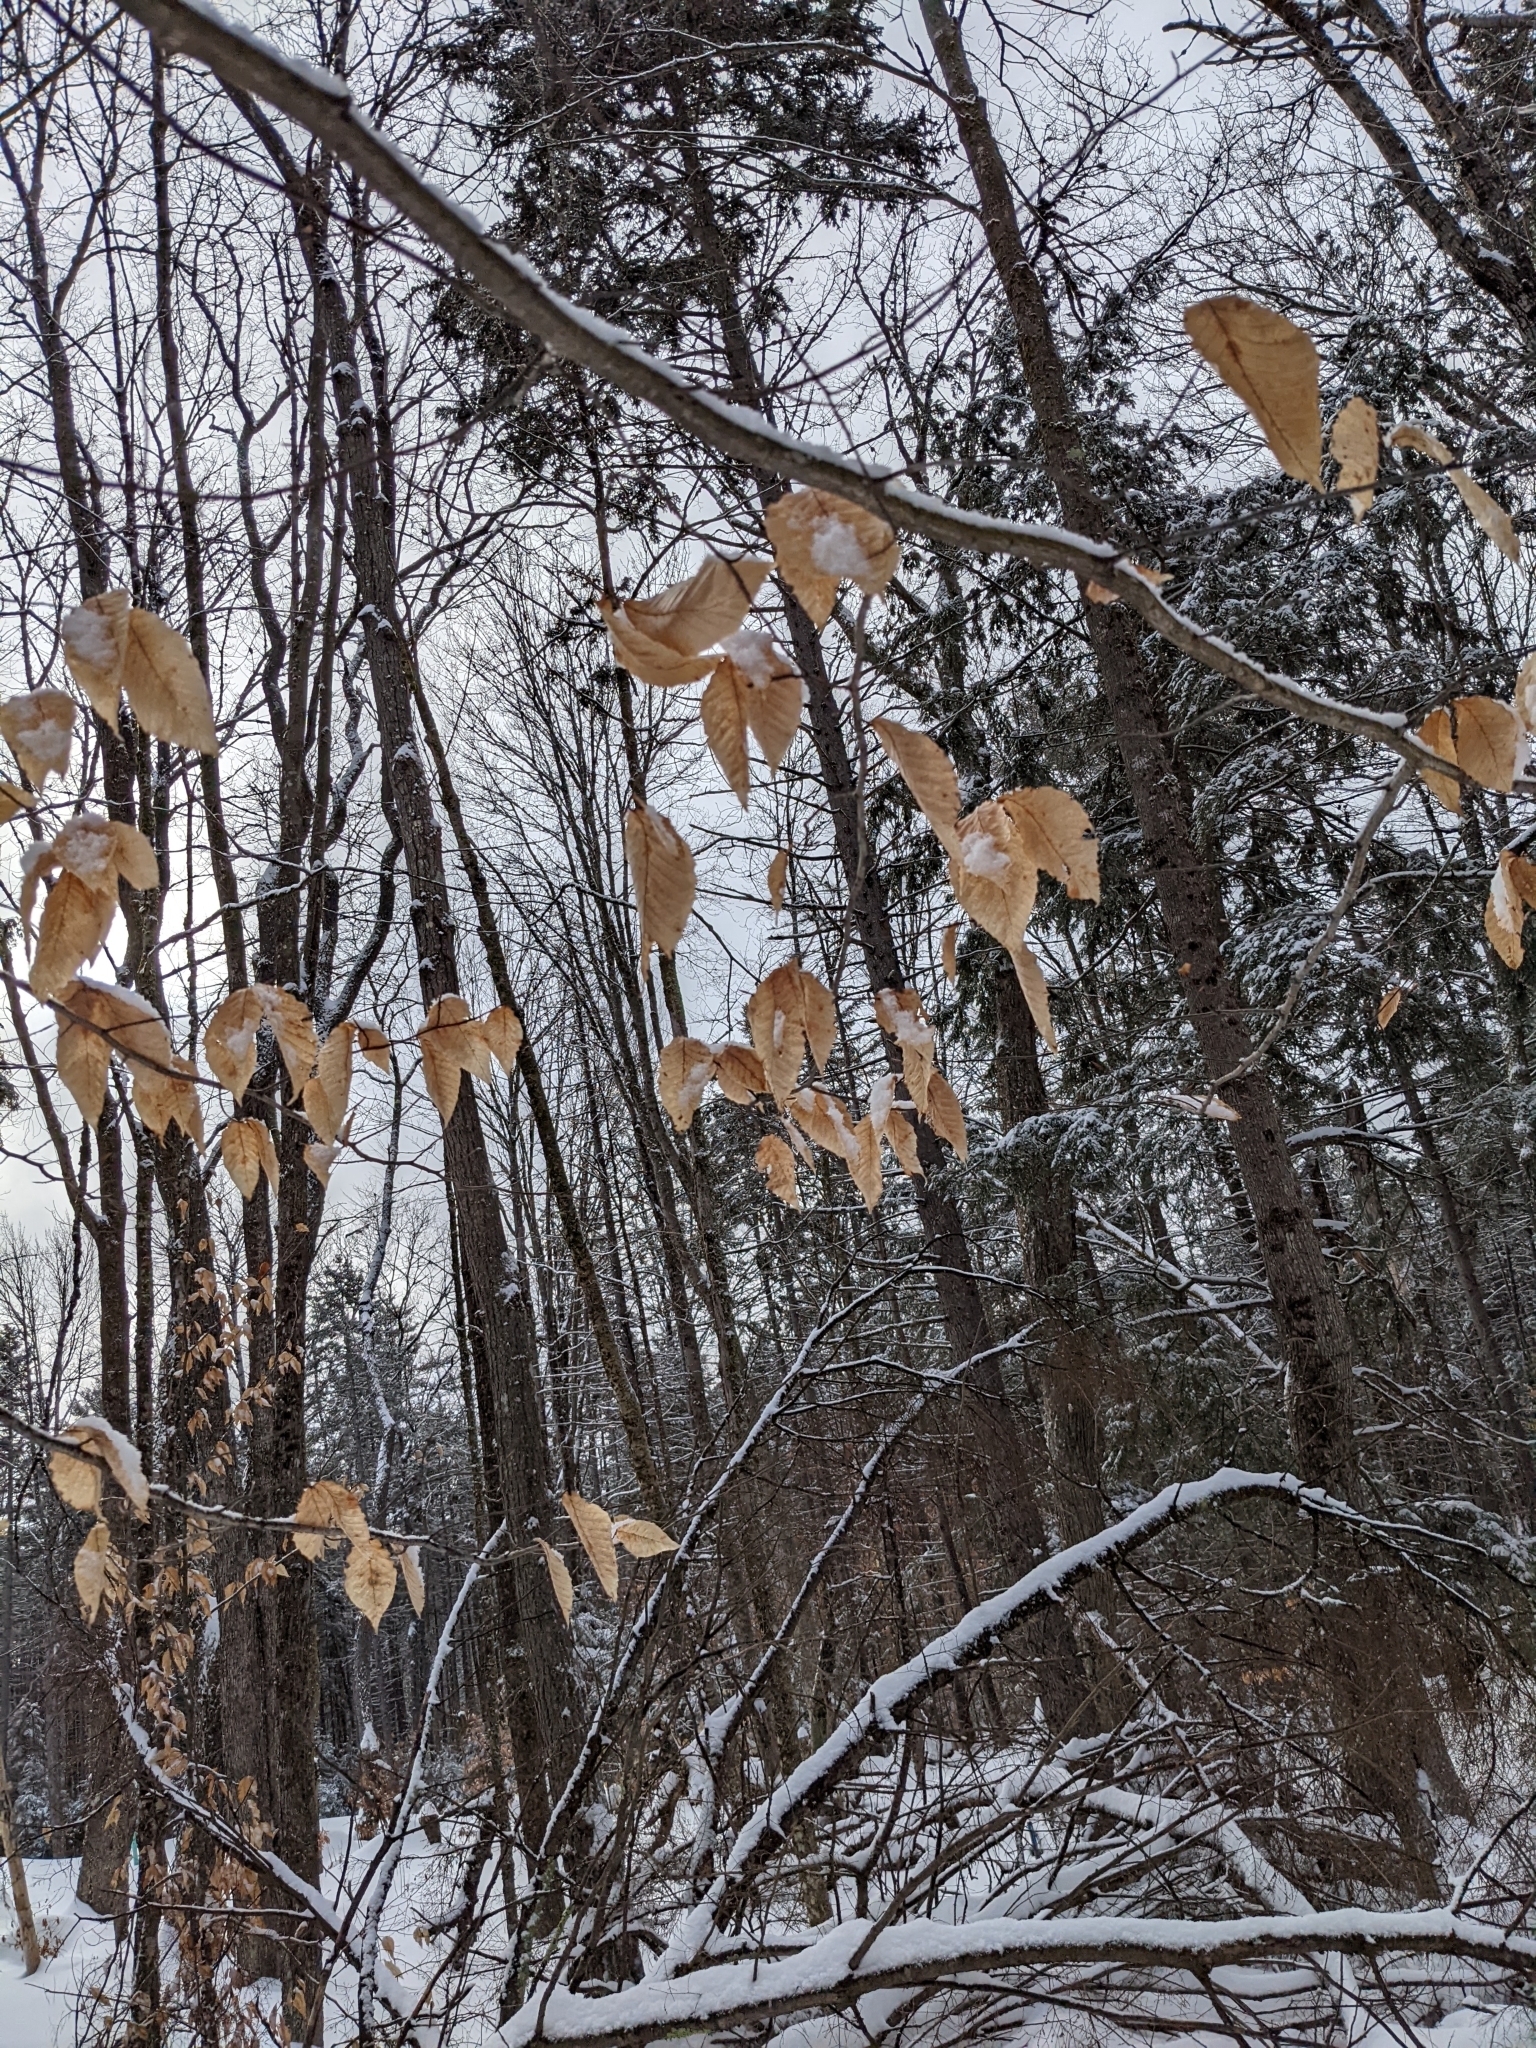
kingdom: Plantae
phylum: Tracheophyta
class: Magnoliopsida
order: Fagales
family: Fagaceae
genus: Fagus
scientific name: Fagus grandifolia
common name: American beech
